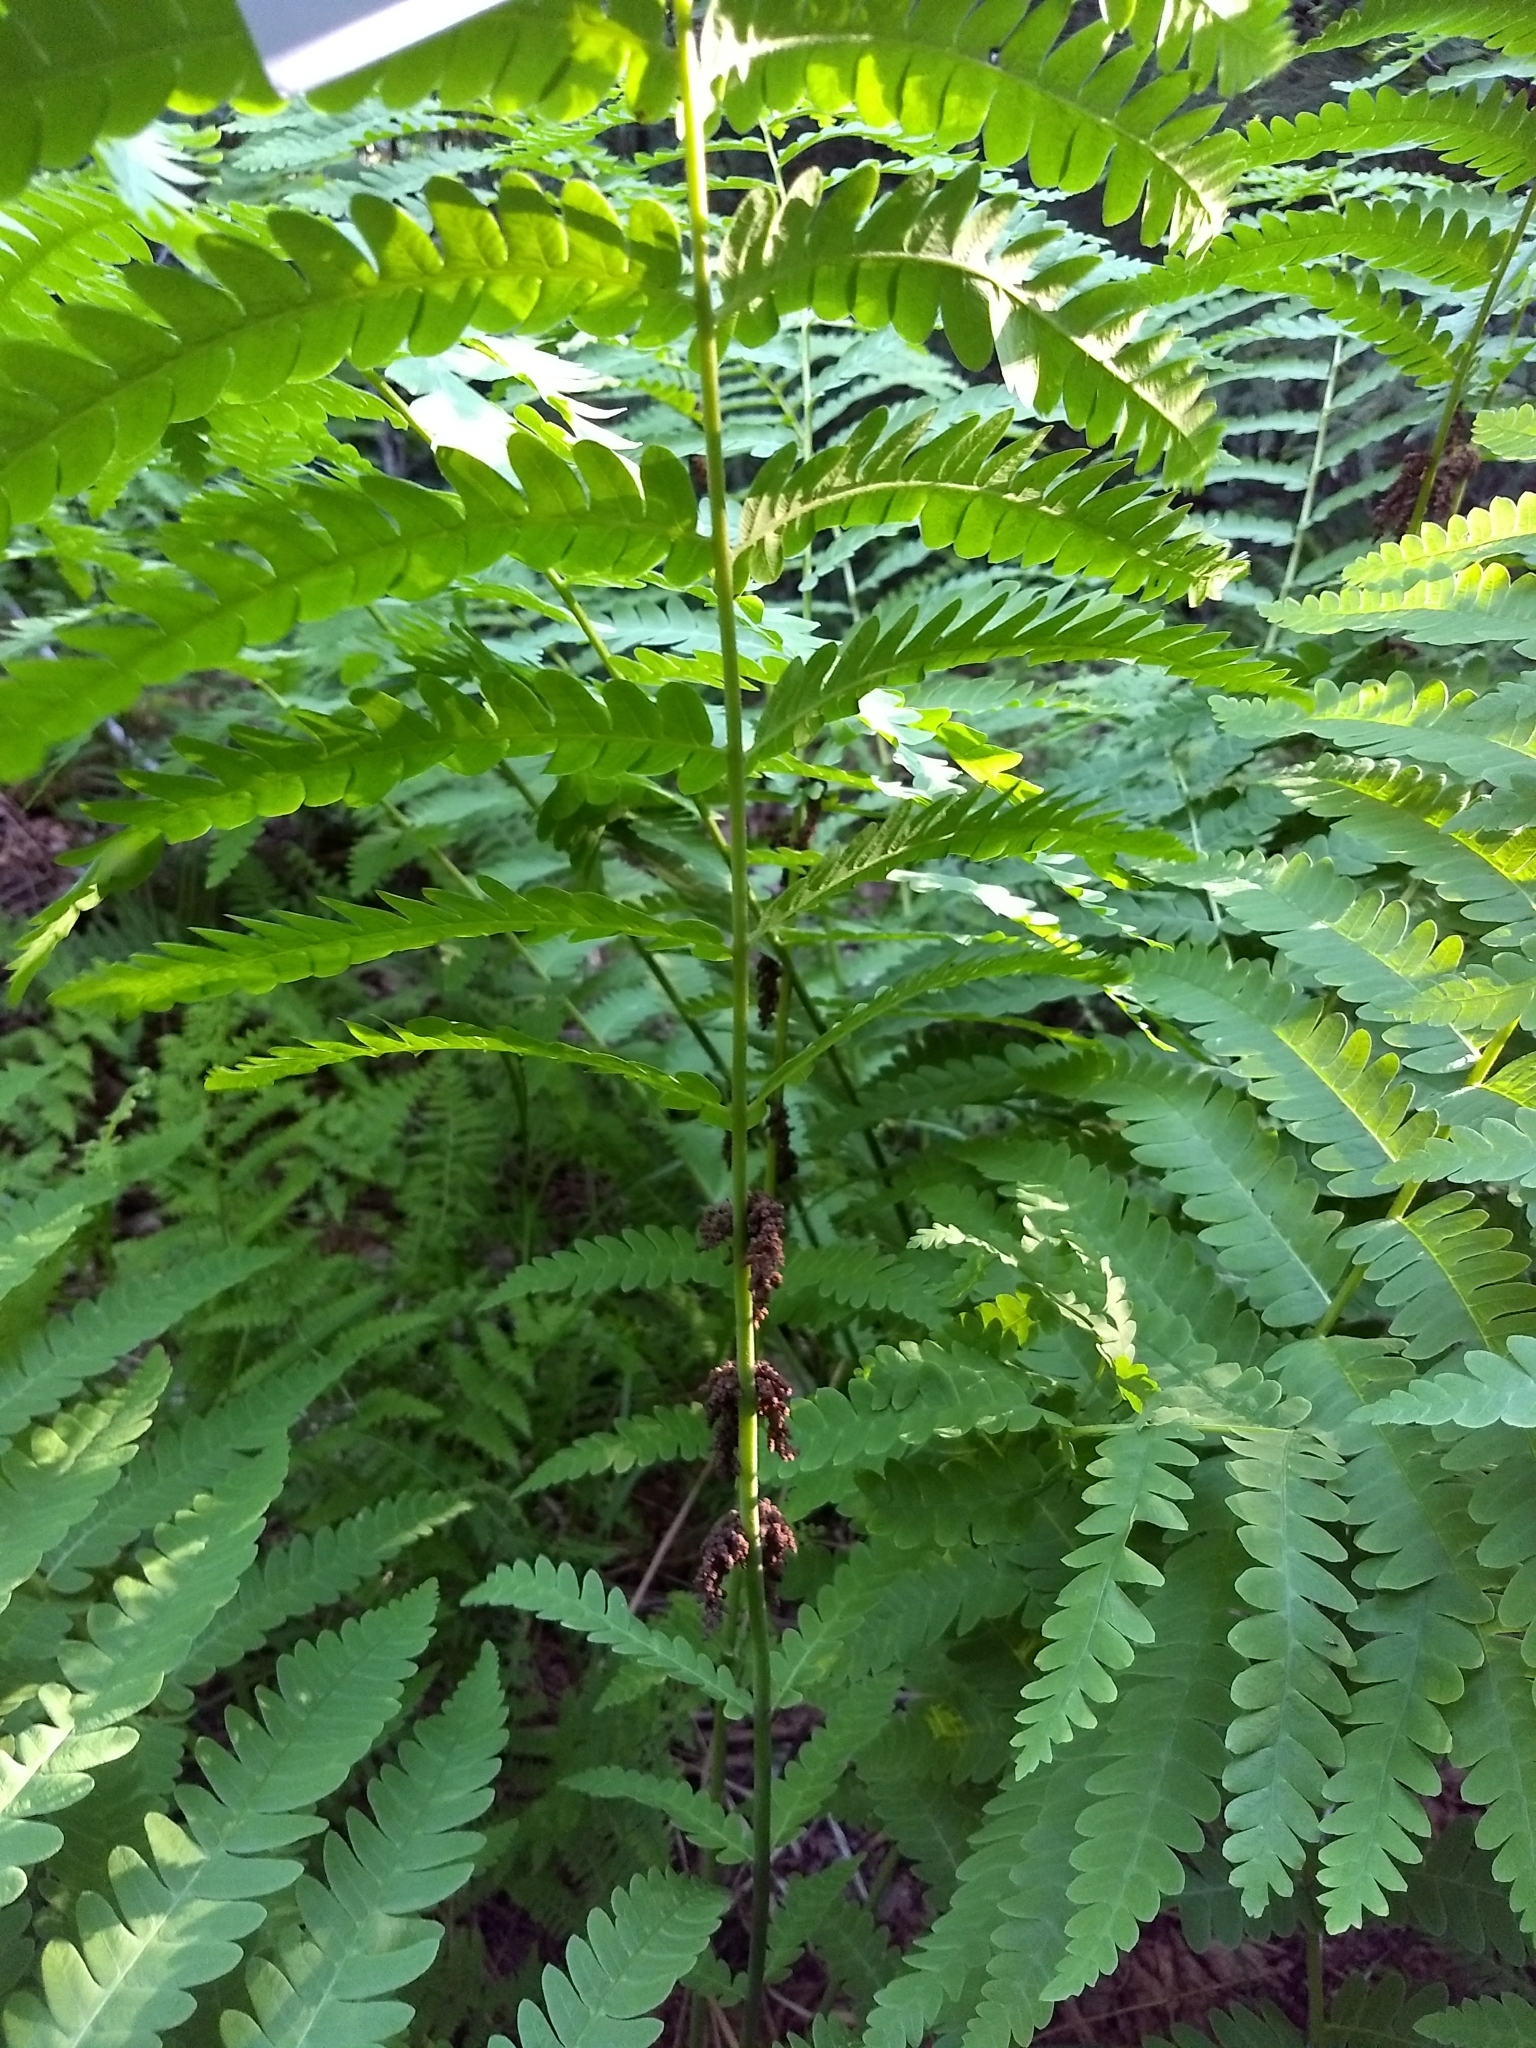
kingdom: Plantae
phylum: Tracheophyta
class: Polypodiopsida
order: Osmundales
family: Osmundaceae
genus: Claytosmunda
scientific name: Claytosmunda claytoniana
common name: Clayton's fern
